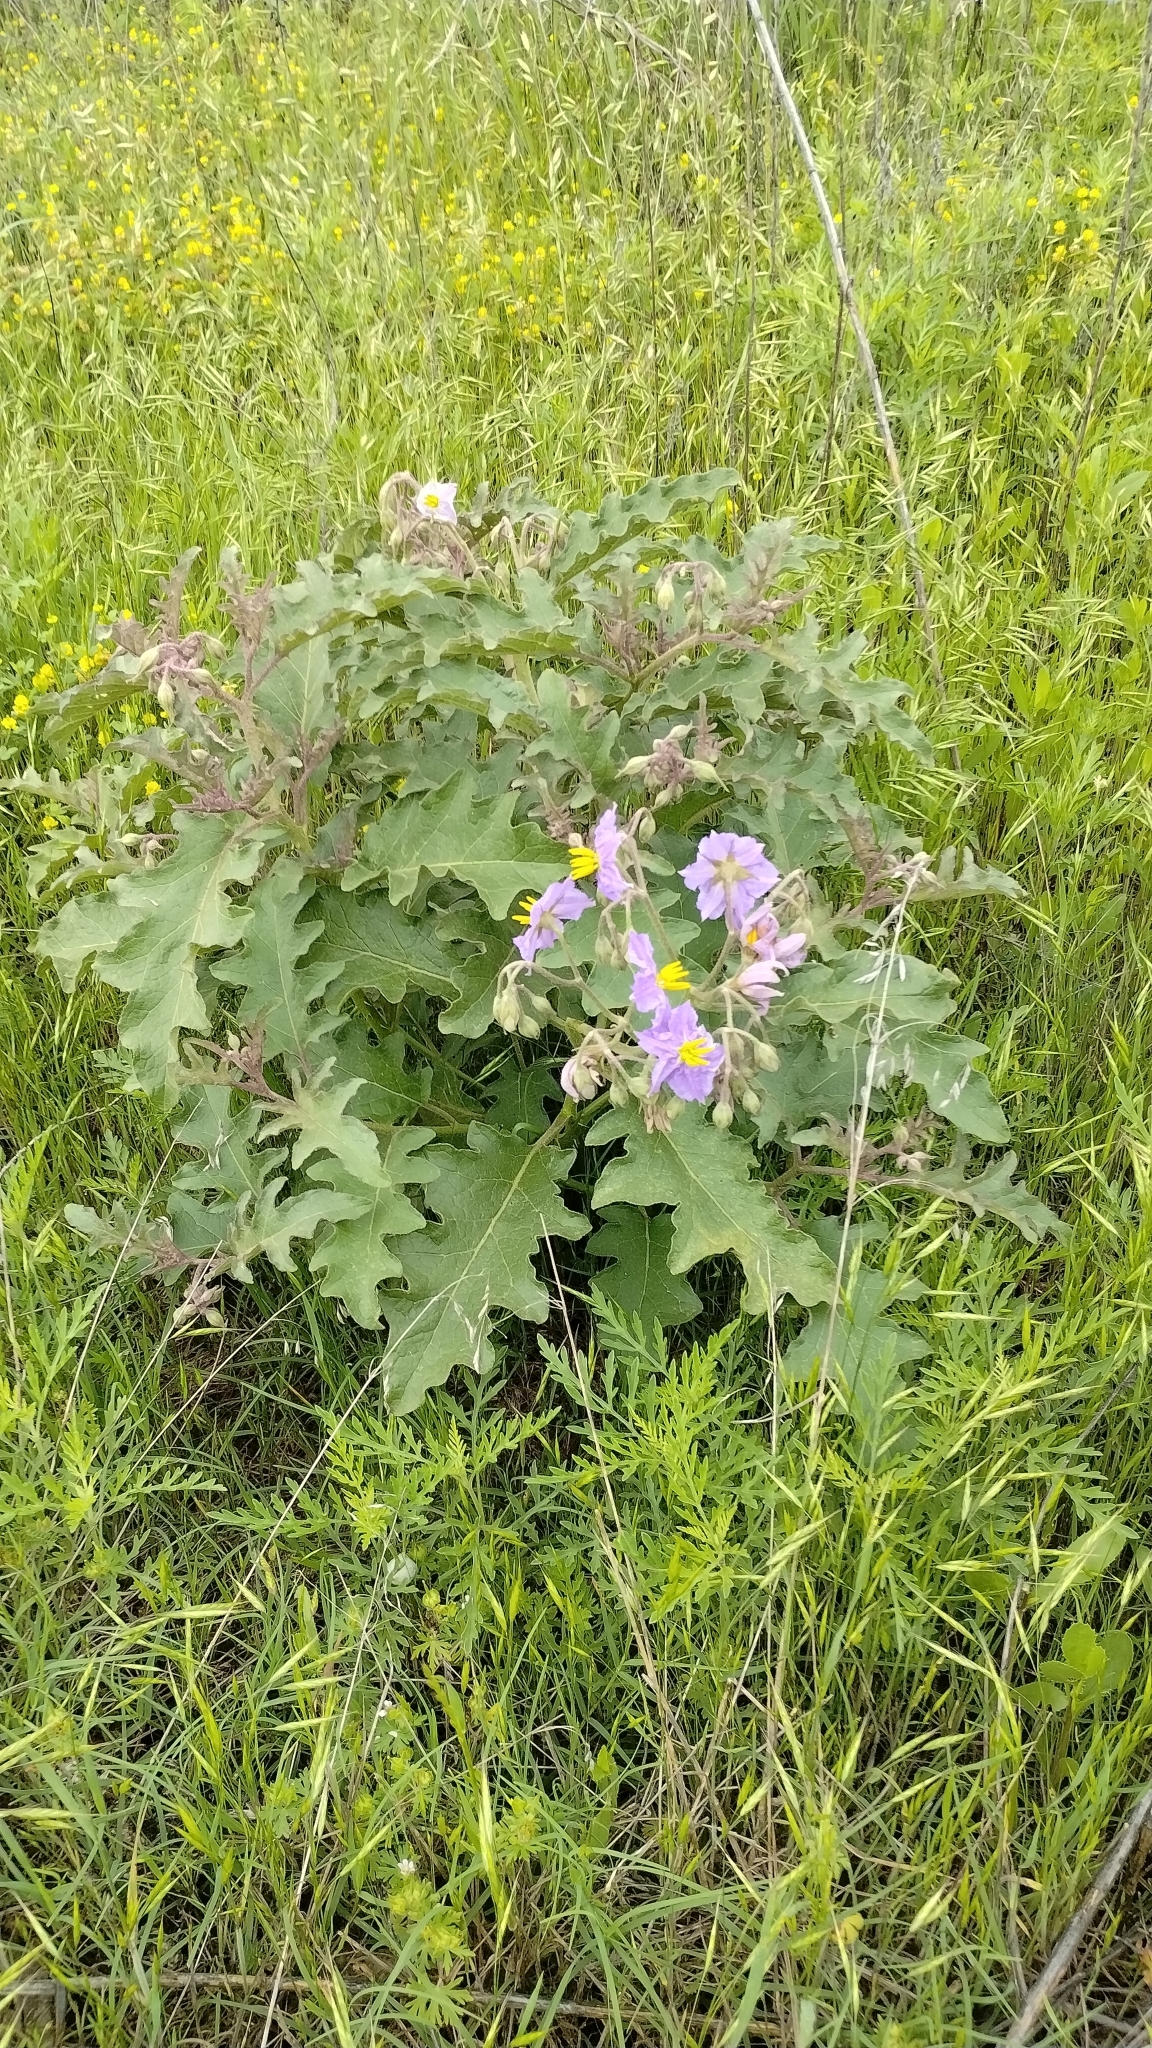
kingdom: Plantae
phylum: Tracheophyta
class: Magnoliopsida
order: Solanales
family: Solanaceae
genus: Solanum
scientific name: Solanum dimidiatum
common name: Carolina horse-nettle
